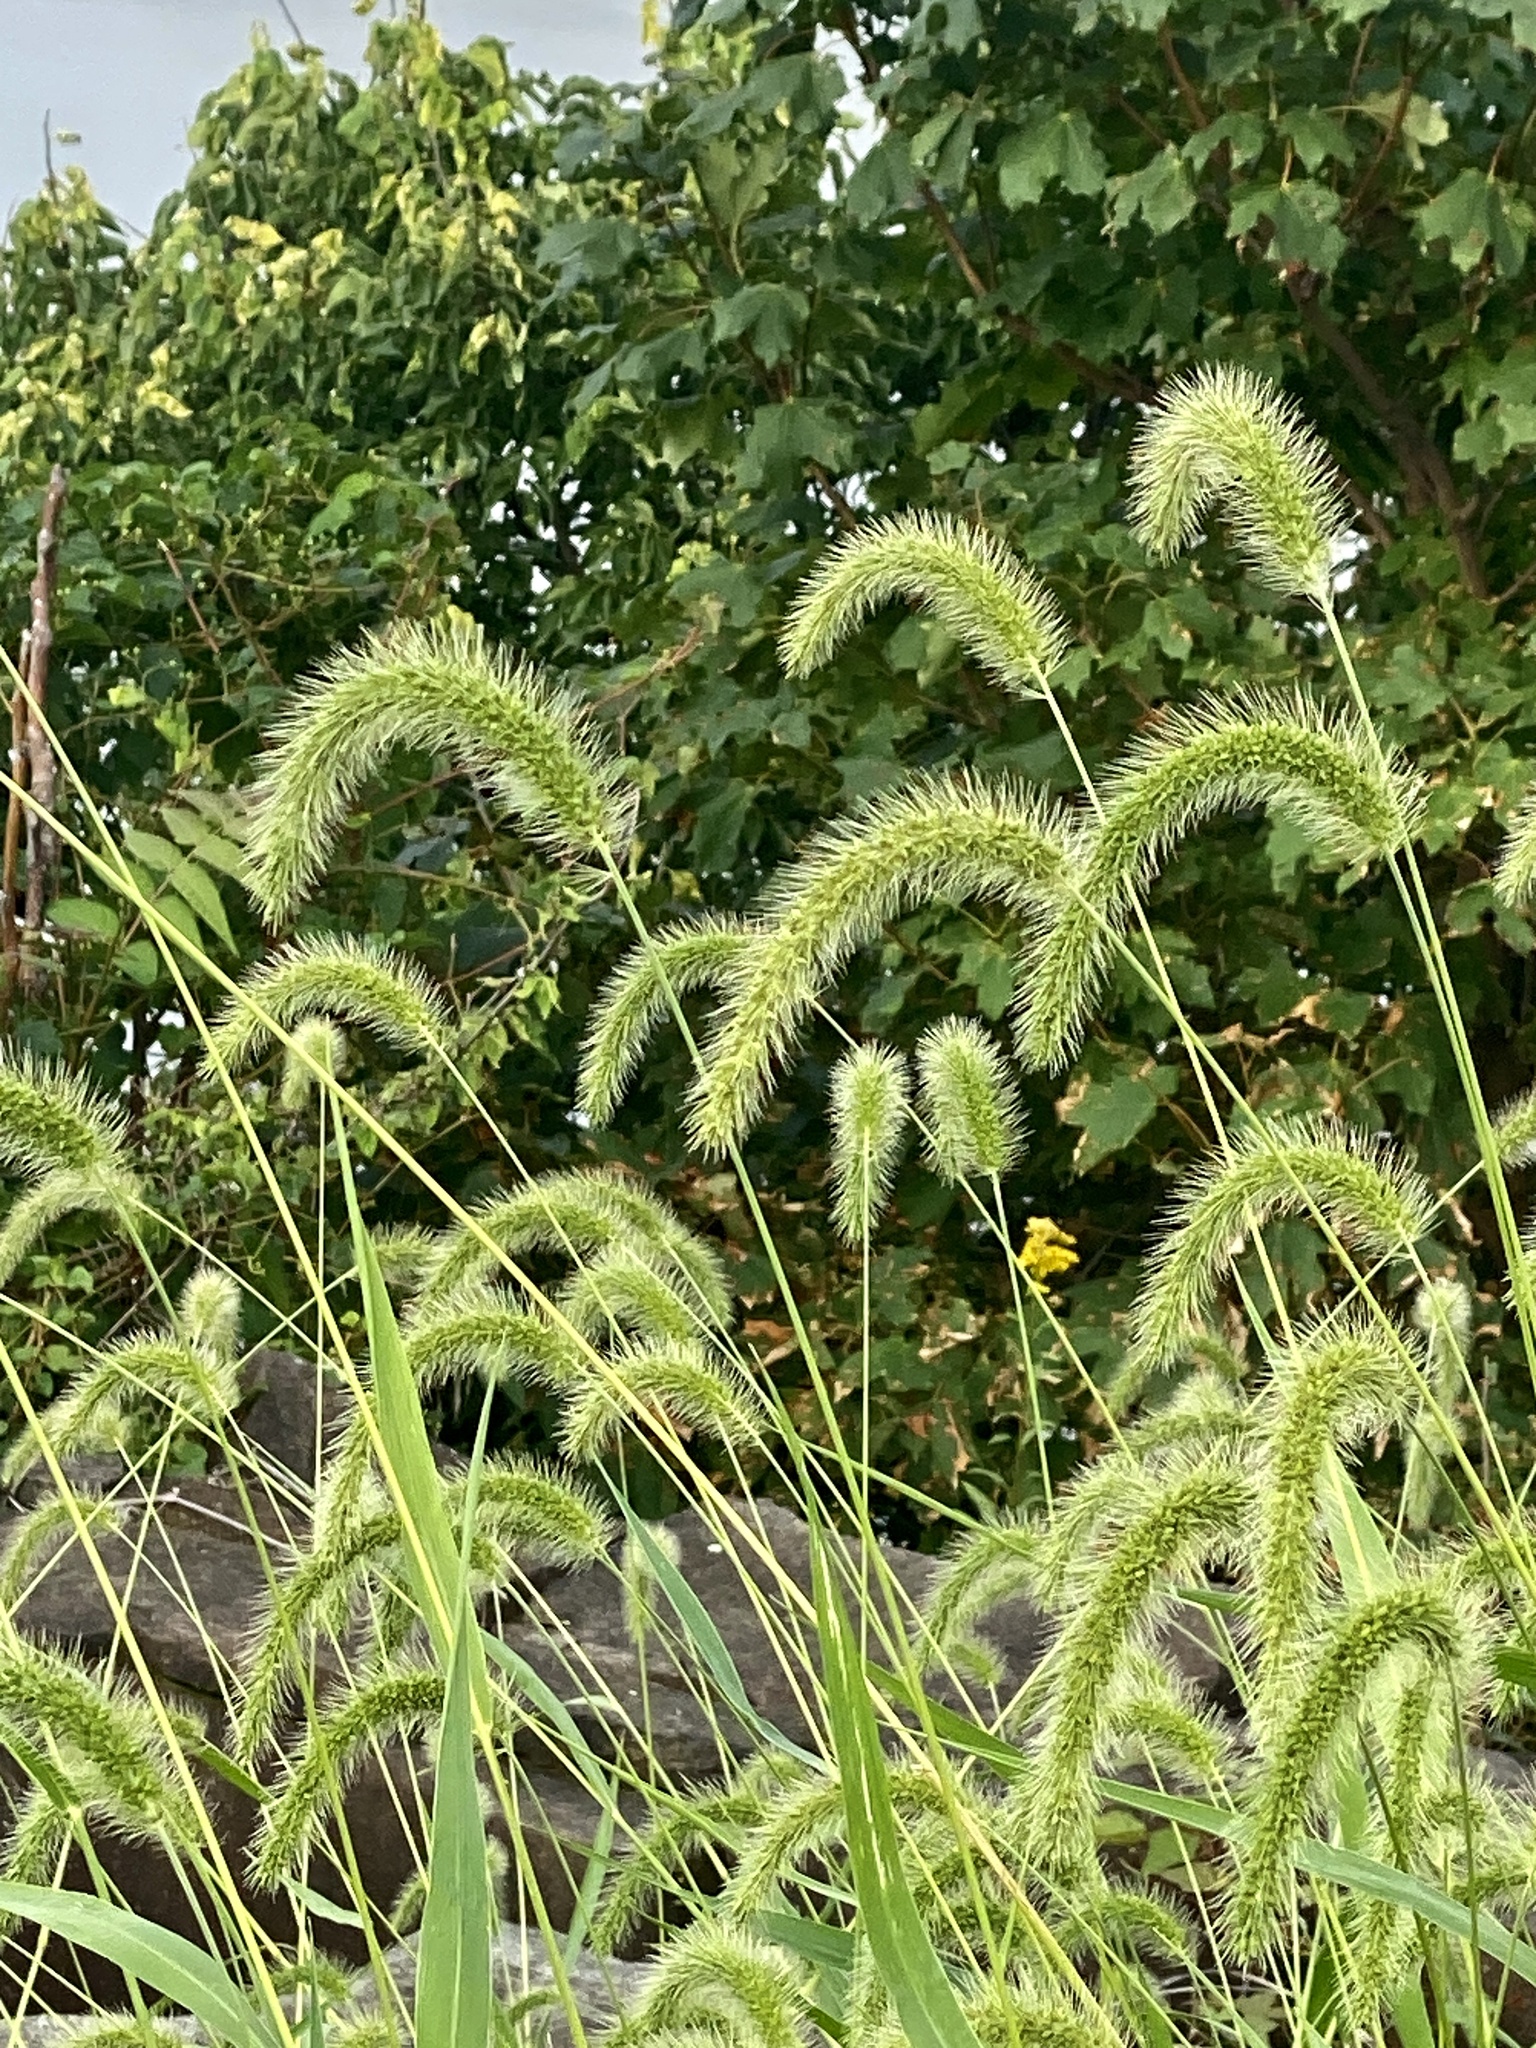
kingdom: Plantae
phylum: Tracheophyta
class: Liliopsida
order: Poales
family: Poaceae
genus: Setaria
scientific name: Setaria faberi
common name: Nodding bristle-grass
